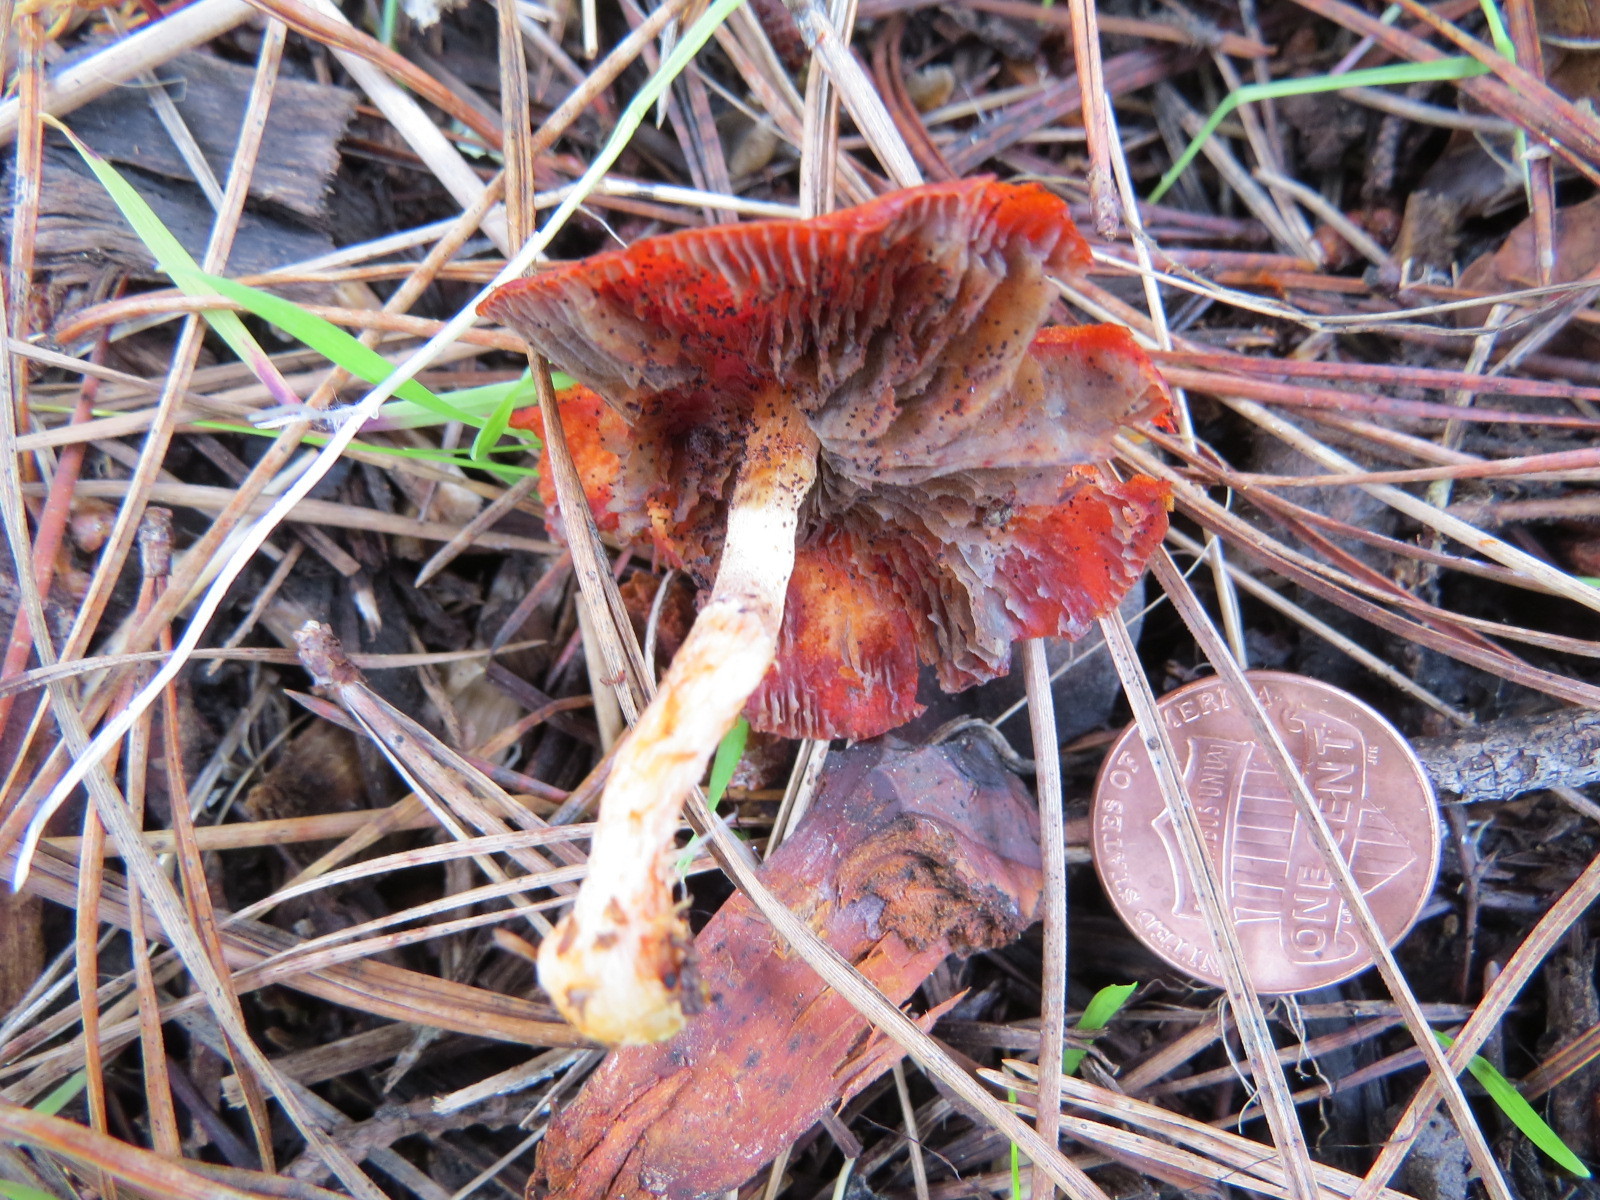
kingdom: Fungi
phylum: Basidiomycota
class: Agaricomycetes
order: Agaricales
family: Strophariaceae
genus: Leratiomyces
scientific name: Leratiomyces ceres
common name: Redlead roundhead
